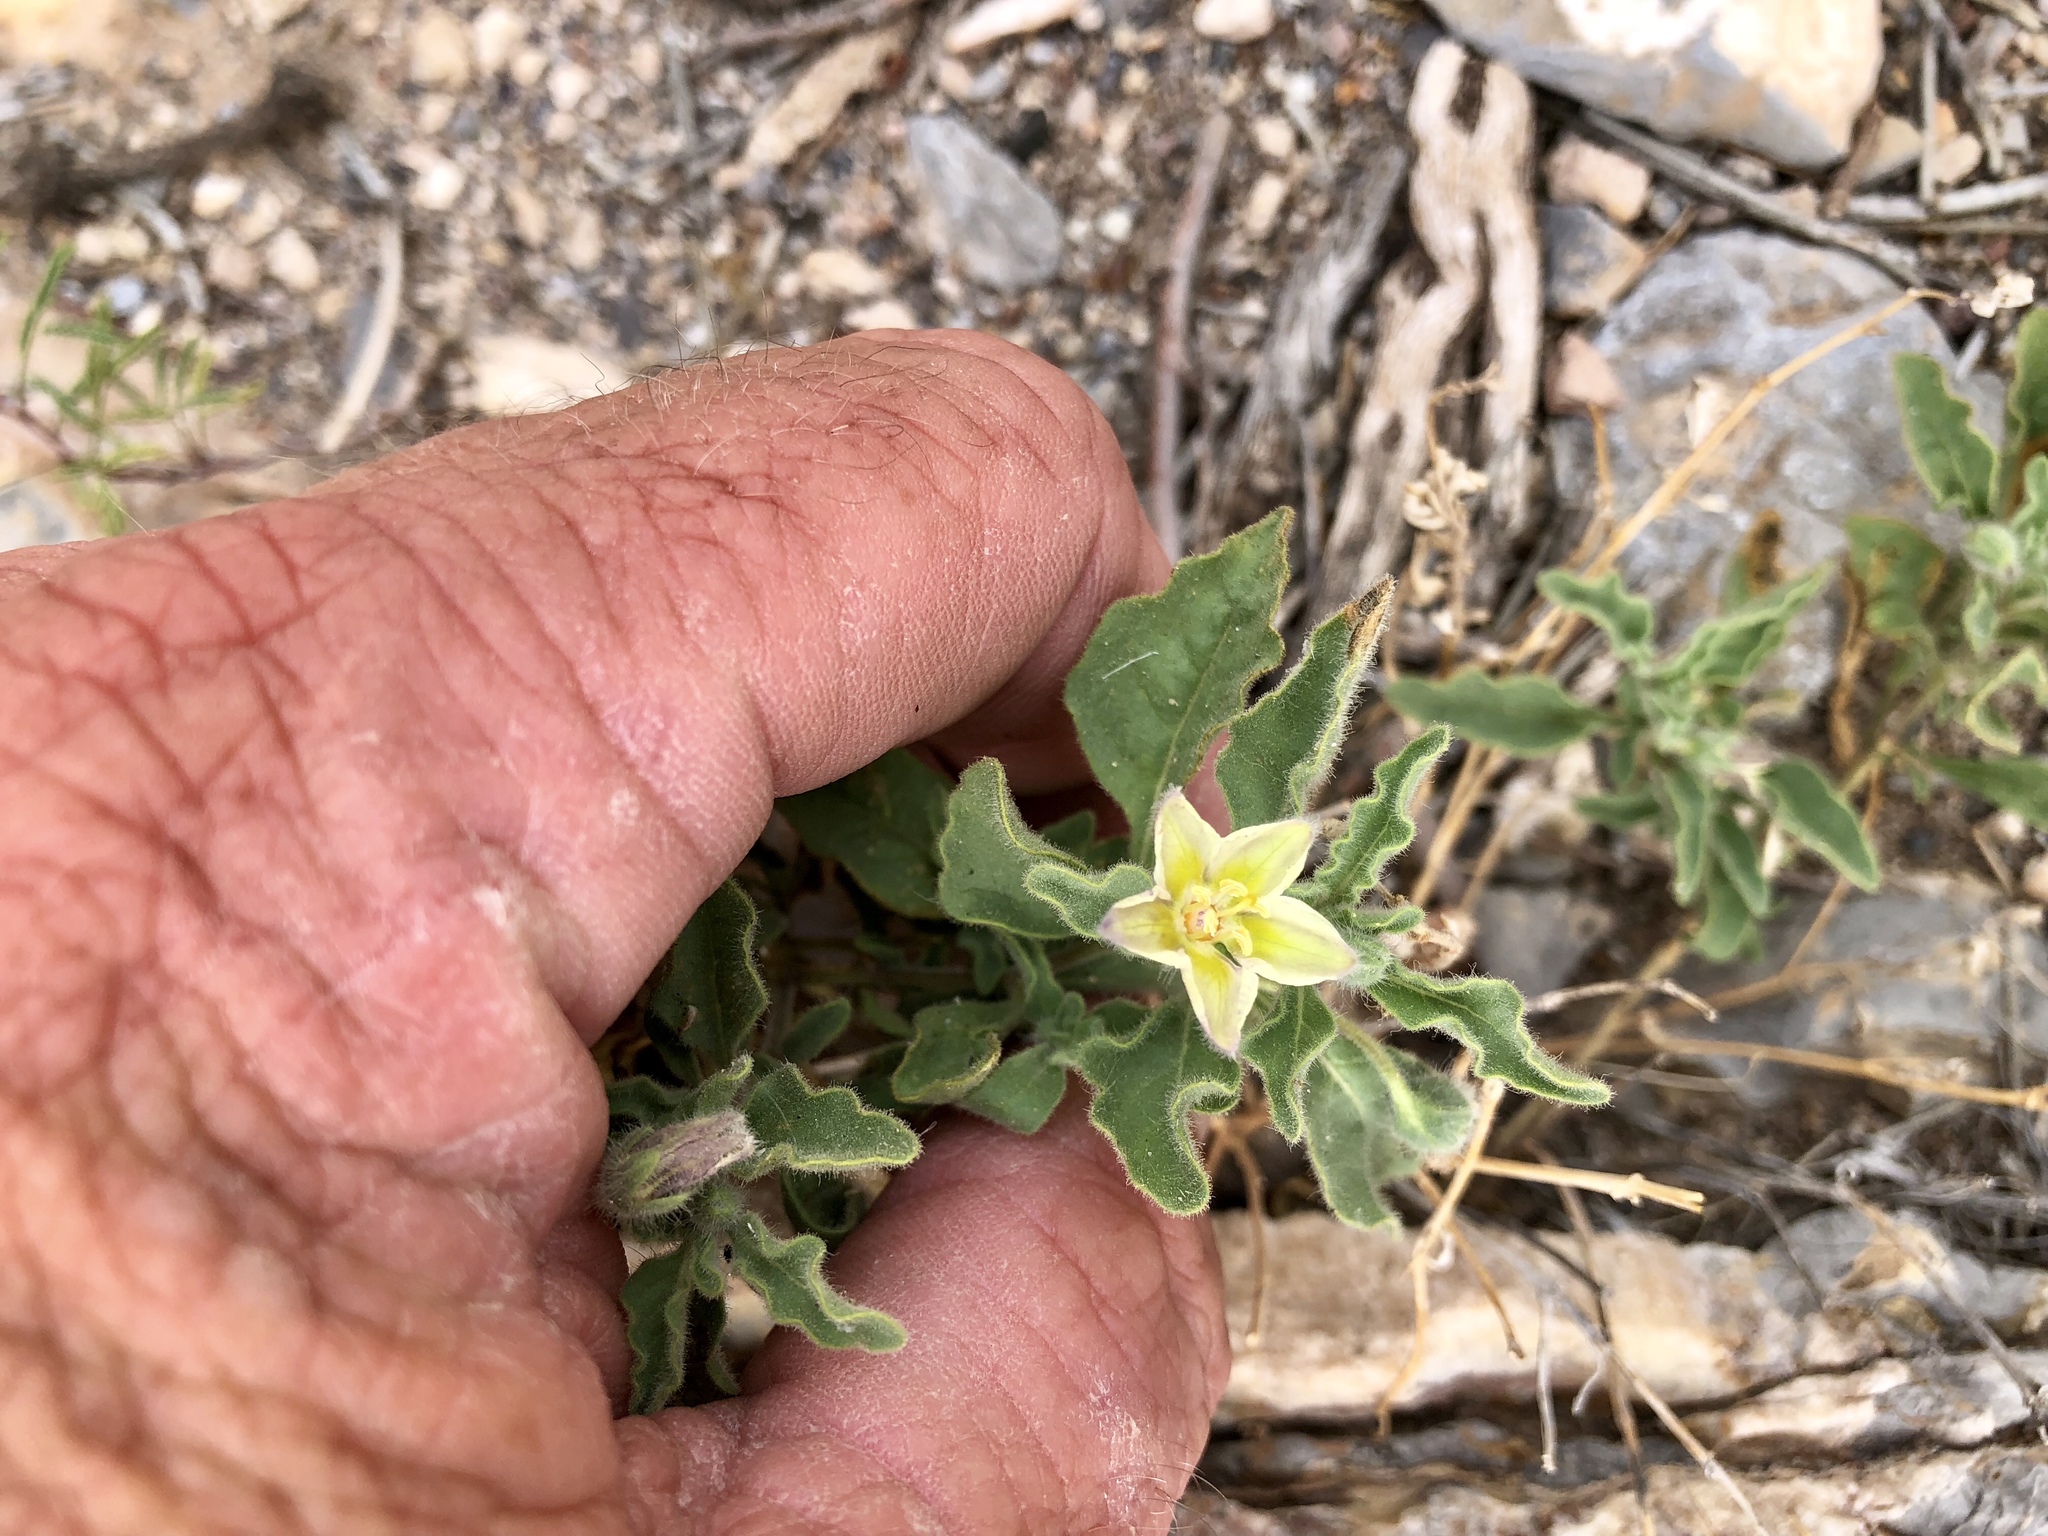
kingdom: Plantae
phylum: Tracheophyta
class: Magnoliopsida
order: Solanales
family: Solanaceae
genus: Chamaesaracha
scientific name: Chamaesaracha sordida
